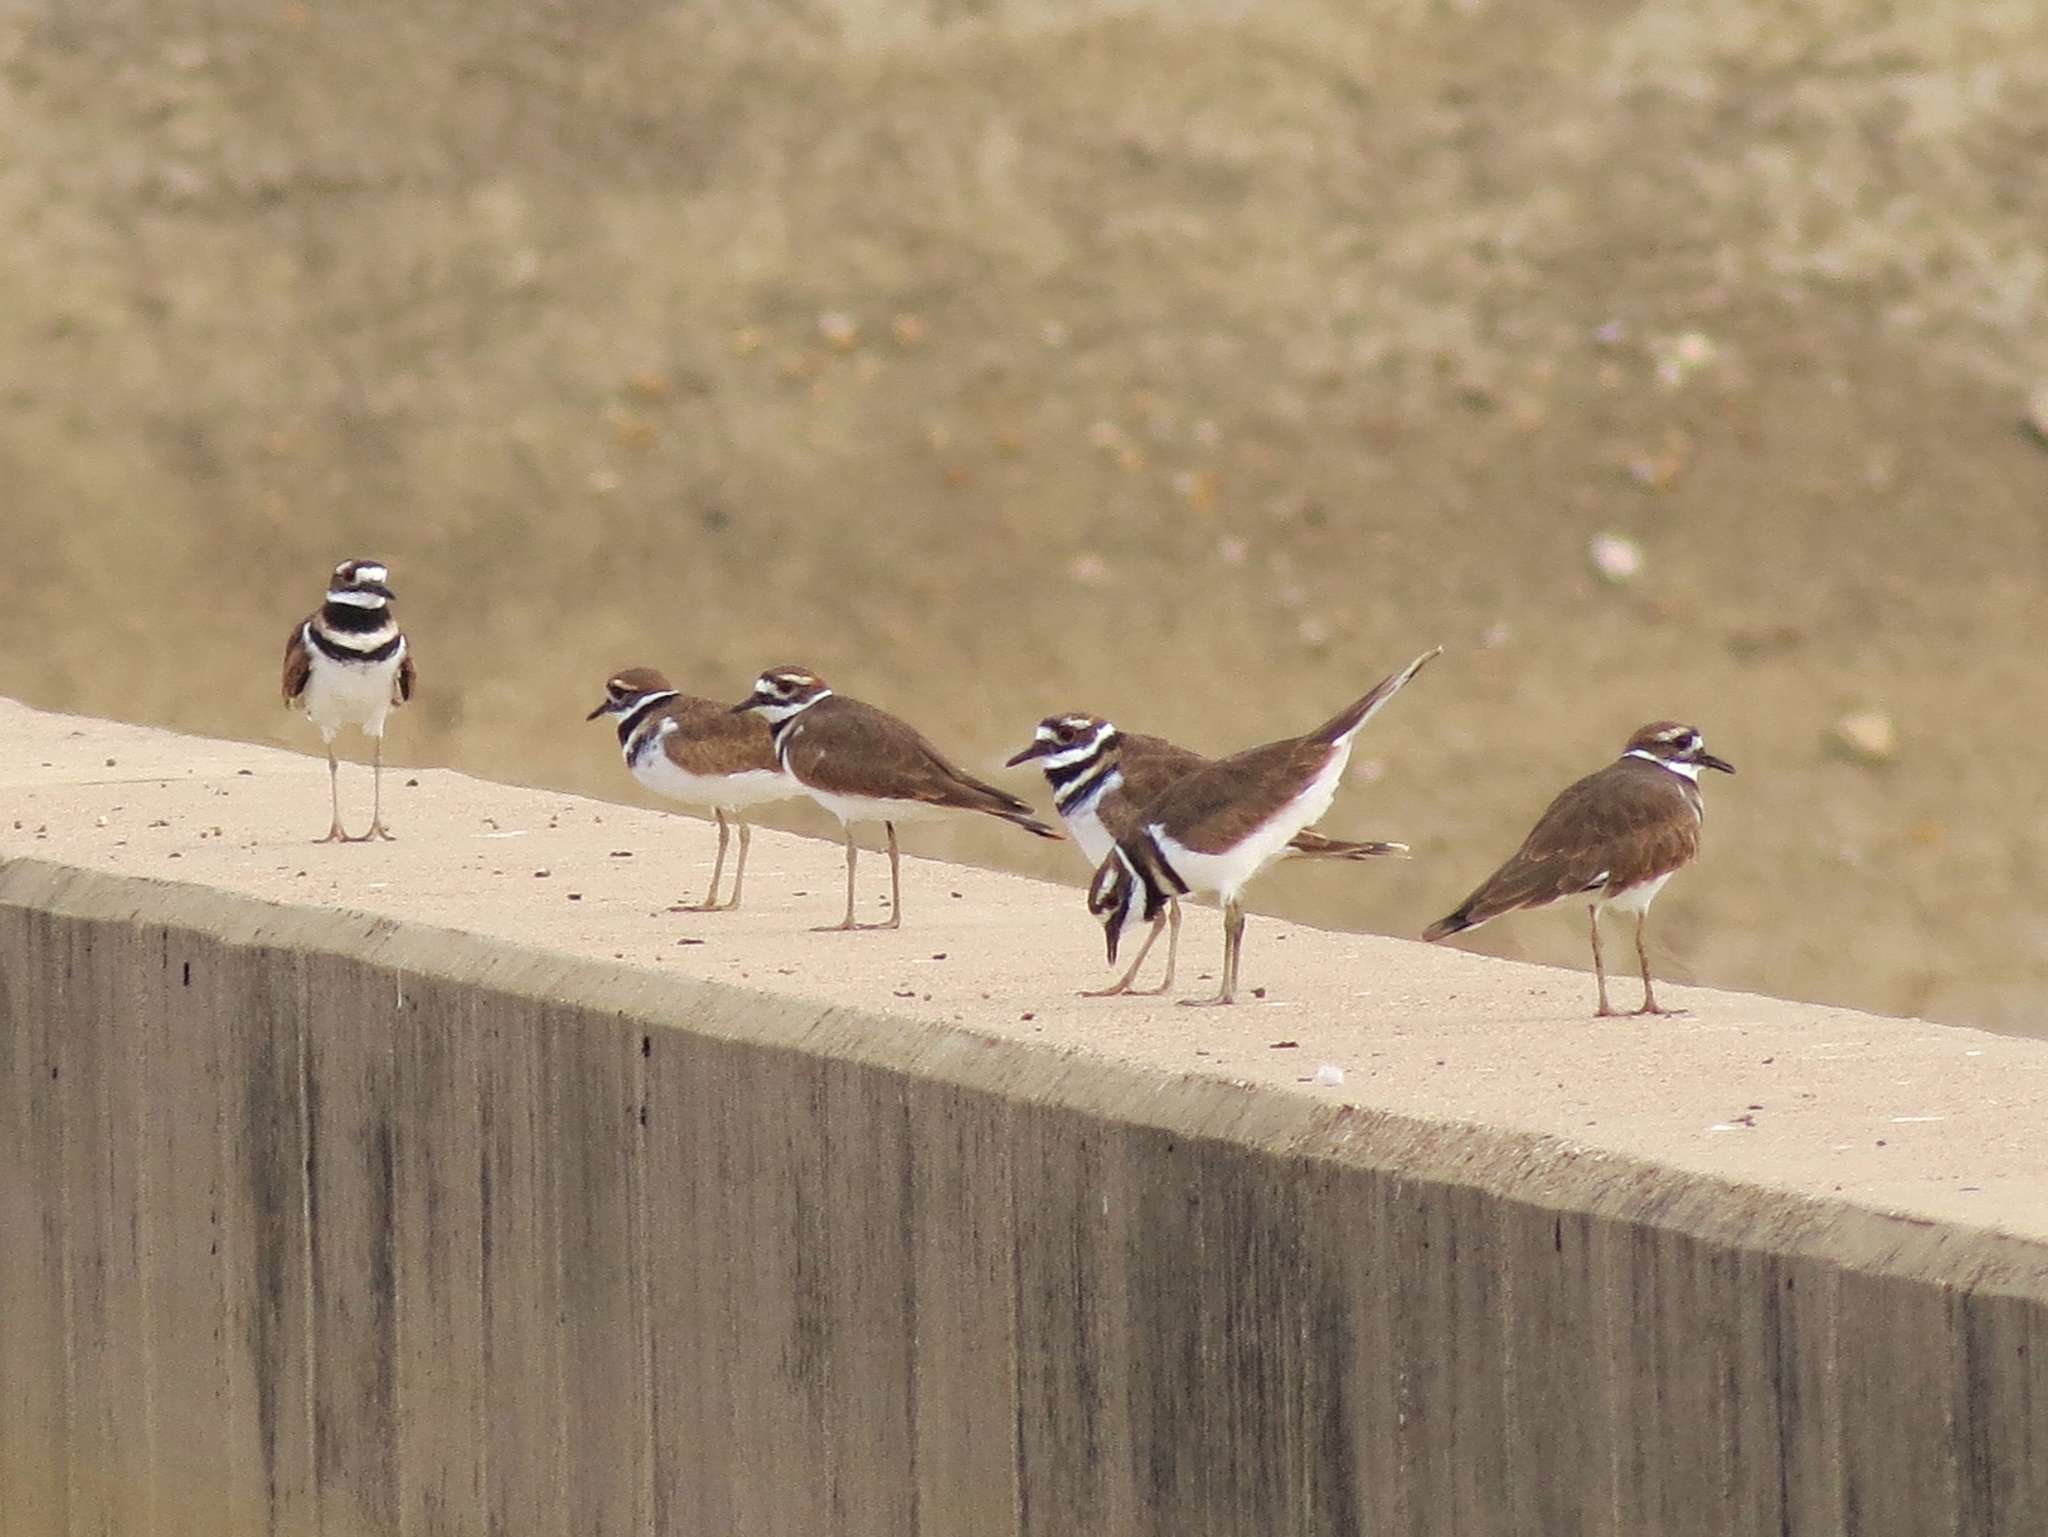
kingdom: Animalia
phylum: Chordata
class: Aves
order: Charadriiformes
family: Charadriidae
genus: Charadrius
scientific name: Charadrius vociferus
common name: Killdeer
